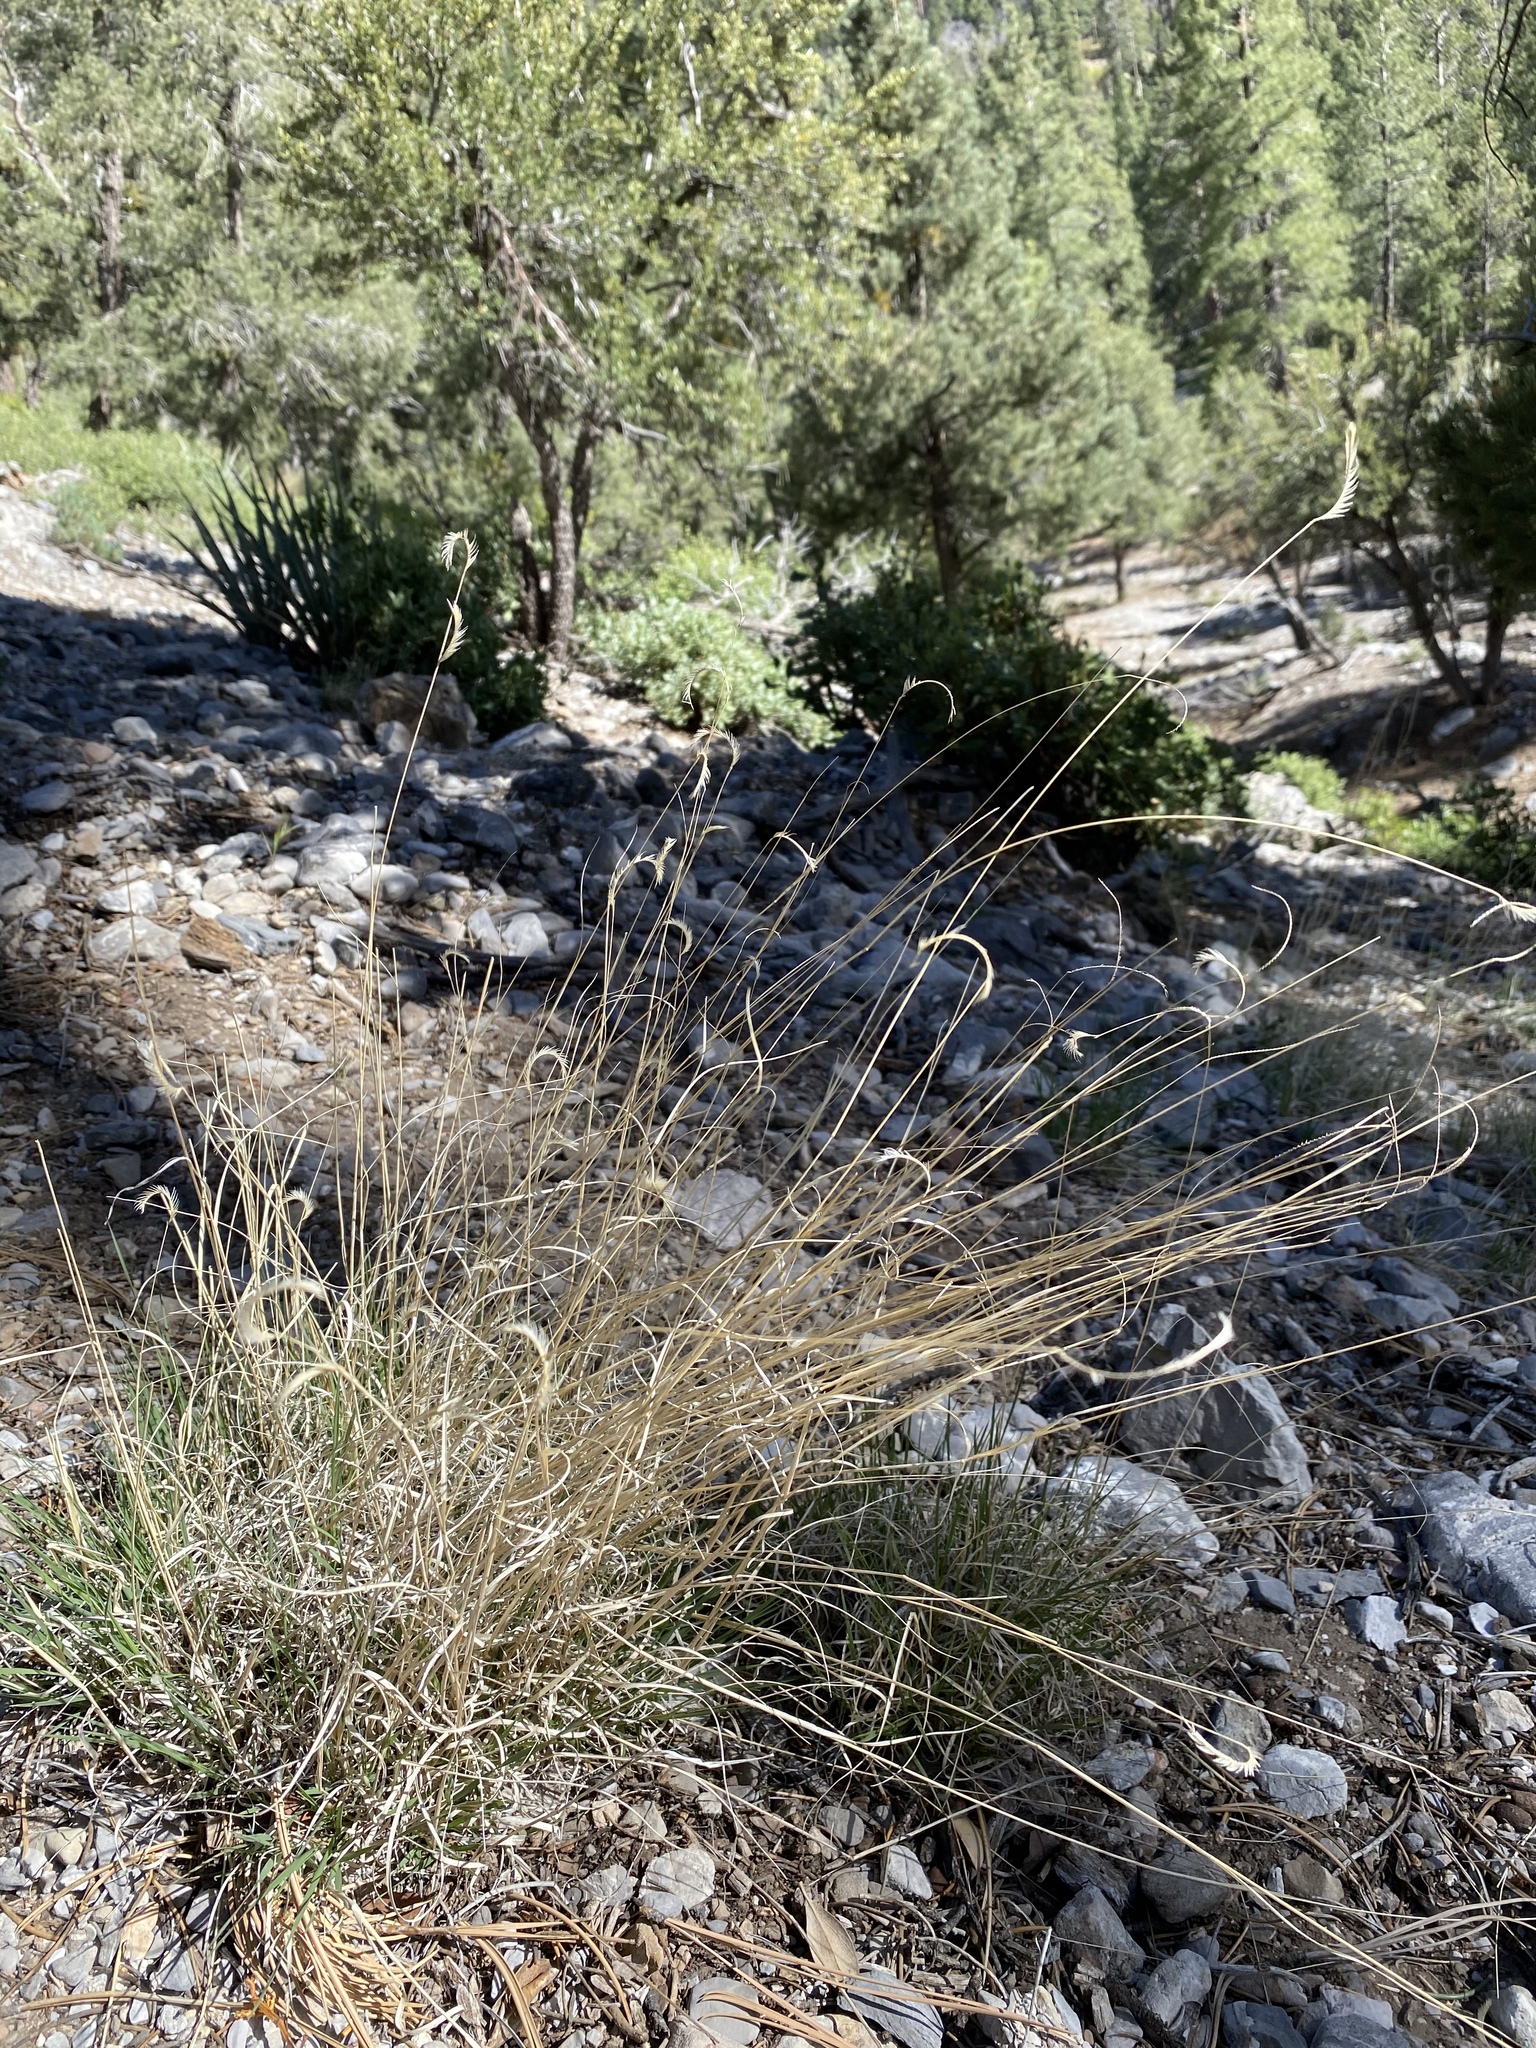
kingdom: Plantae
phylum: Tracheophyta
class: Liliopsida
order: Poales
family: Poaceae
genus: Bouteloua
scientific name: Bouteloua gracilis
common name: Blue grama
